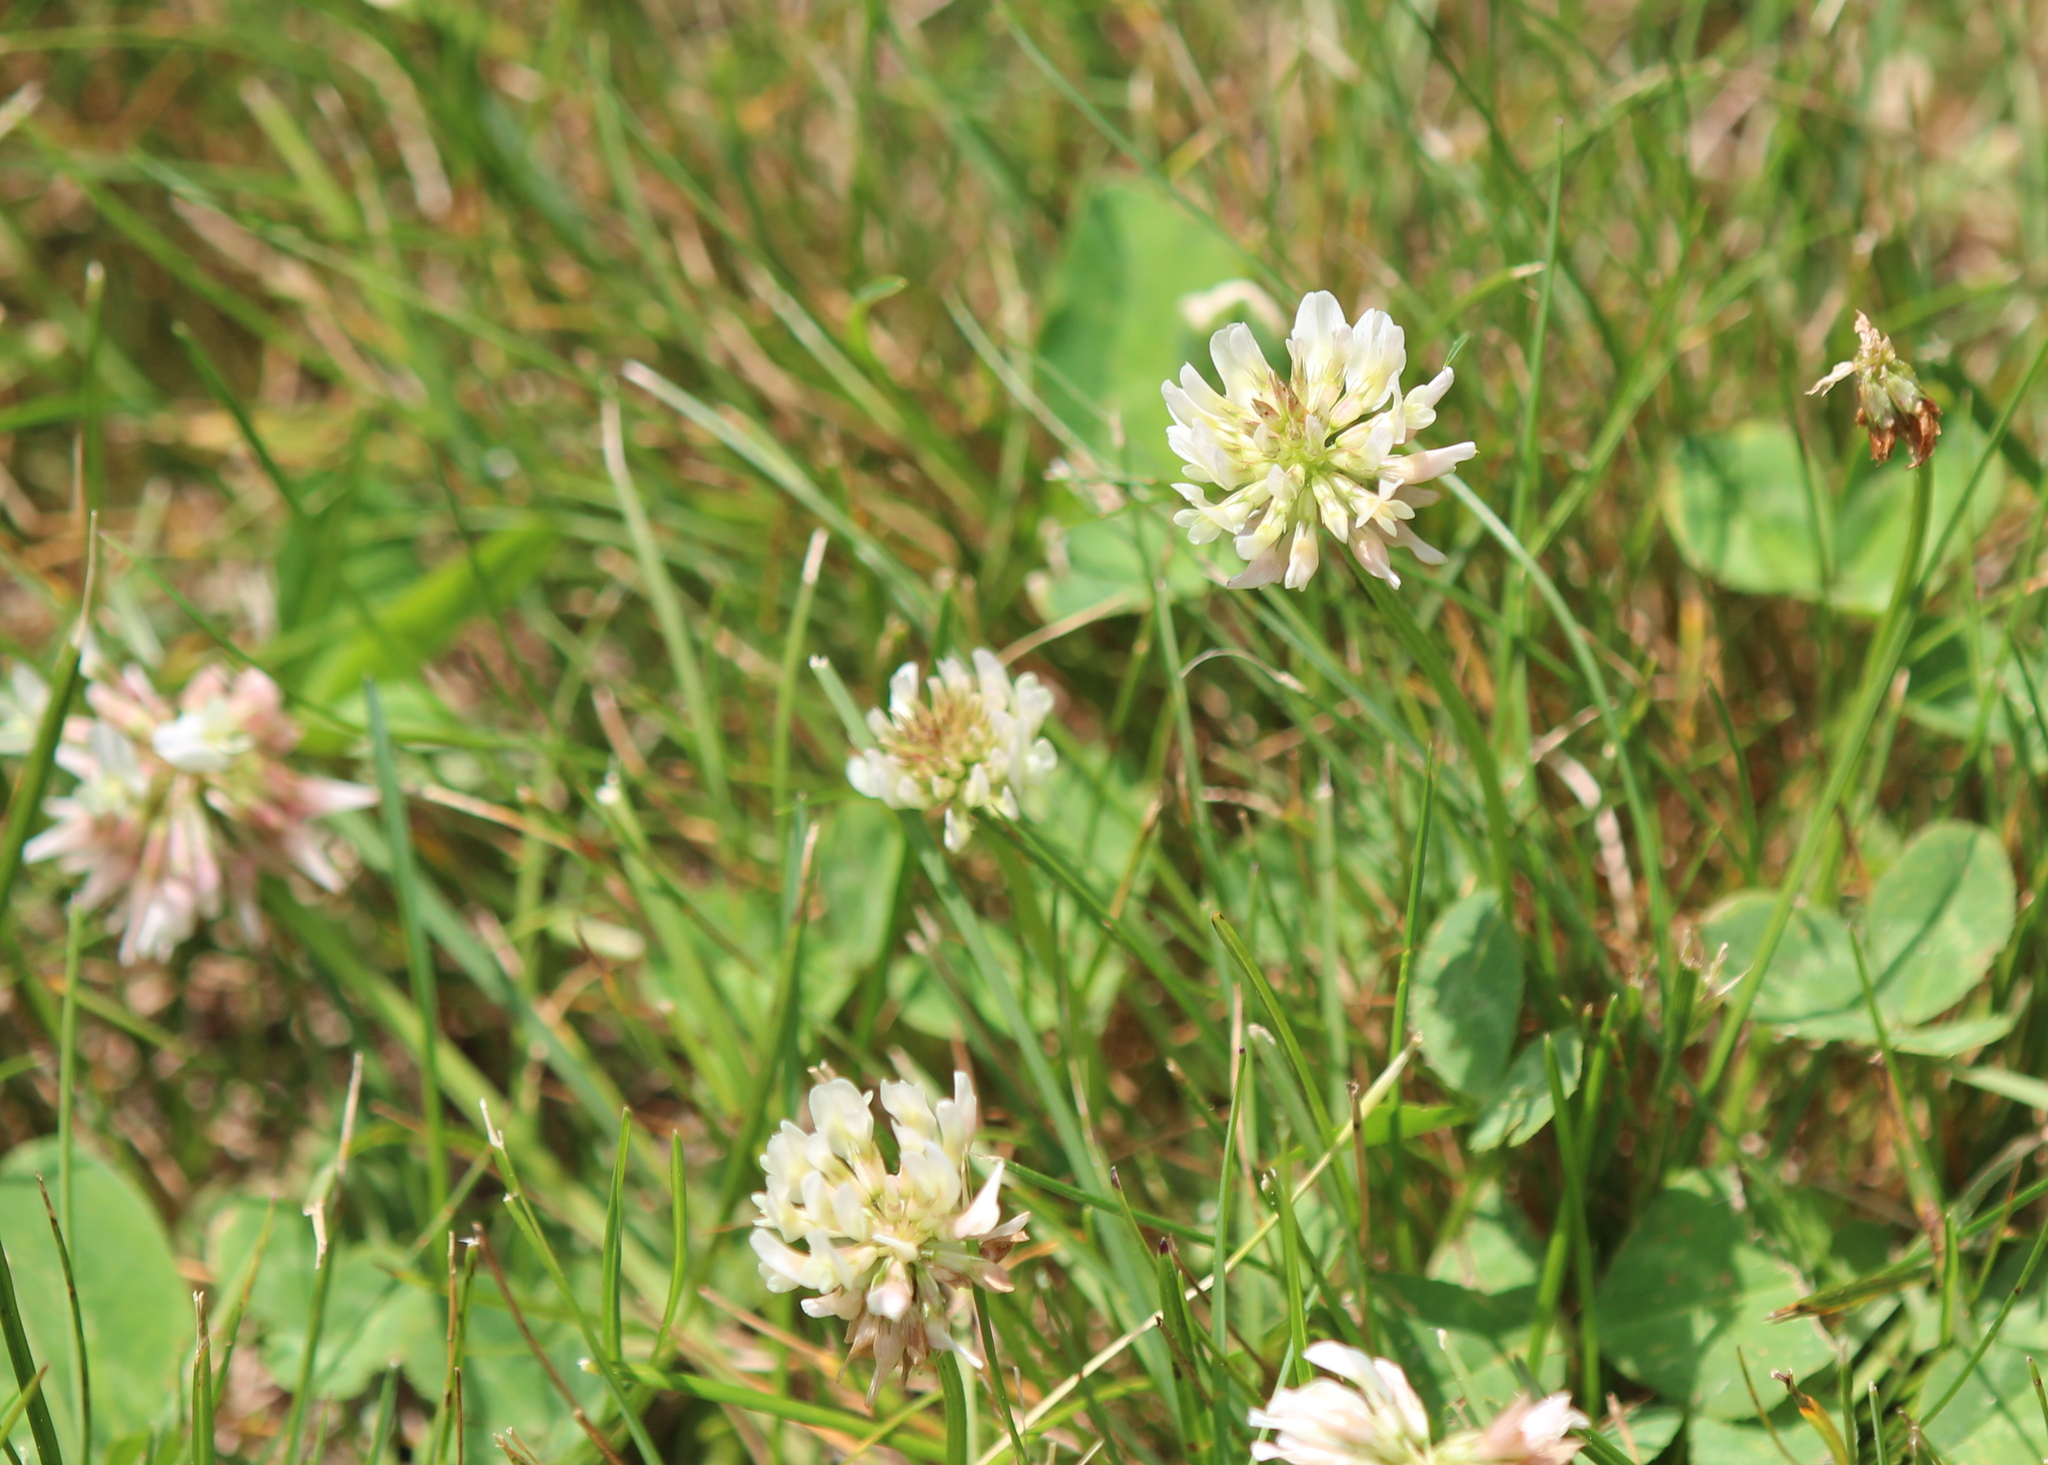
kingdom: Plantae
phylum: Tracheophyta
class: Magnoliopsida
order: Fabales
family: Fabaceae
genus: Trifolium
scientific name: Trifolium repens
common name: White clover
